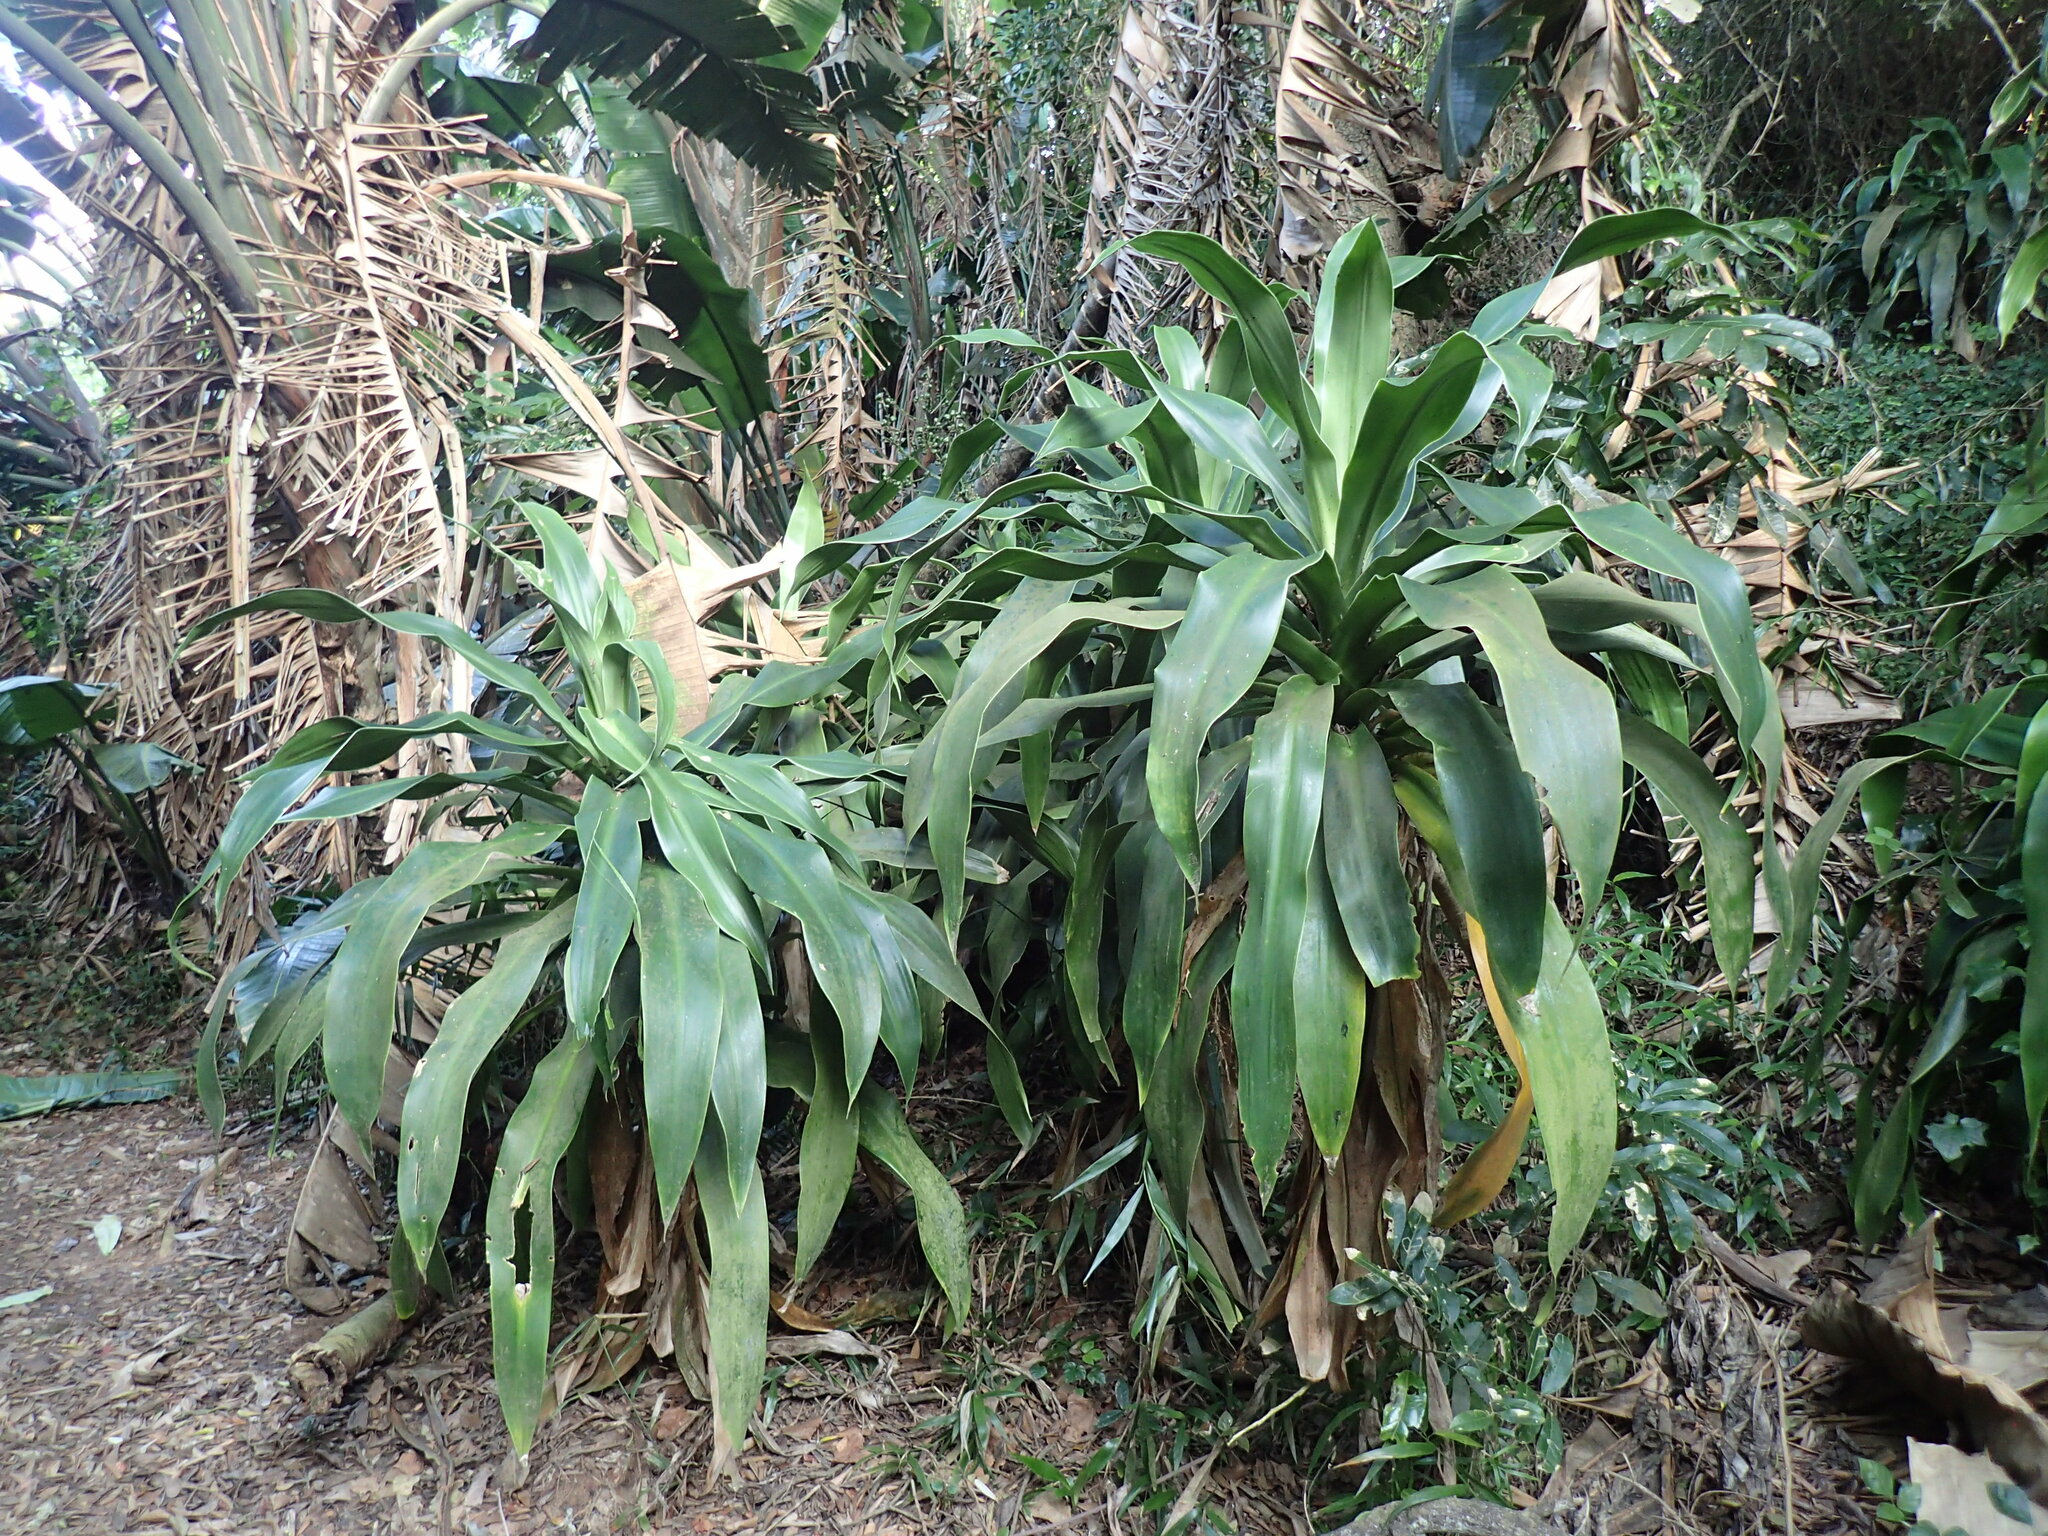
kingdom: Plantae
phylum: Tracheophyta
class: Liliopsida
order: Asparagales
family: Asparagaceae
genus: Dracaena
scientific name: Dracaena aletriformis
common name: Large-leaved dragon tree
